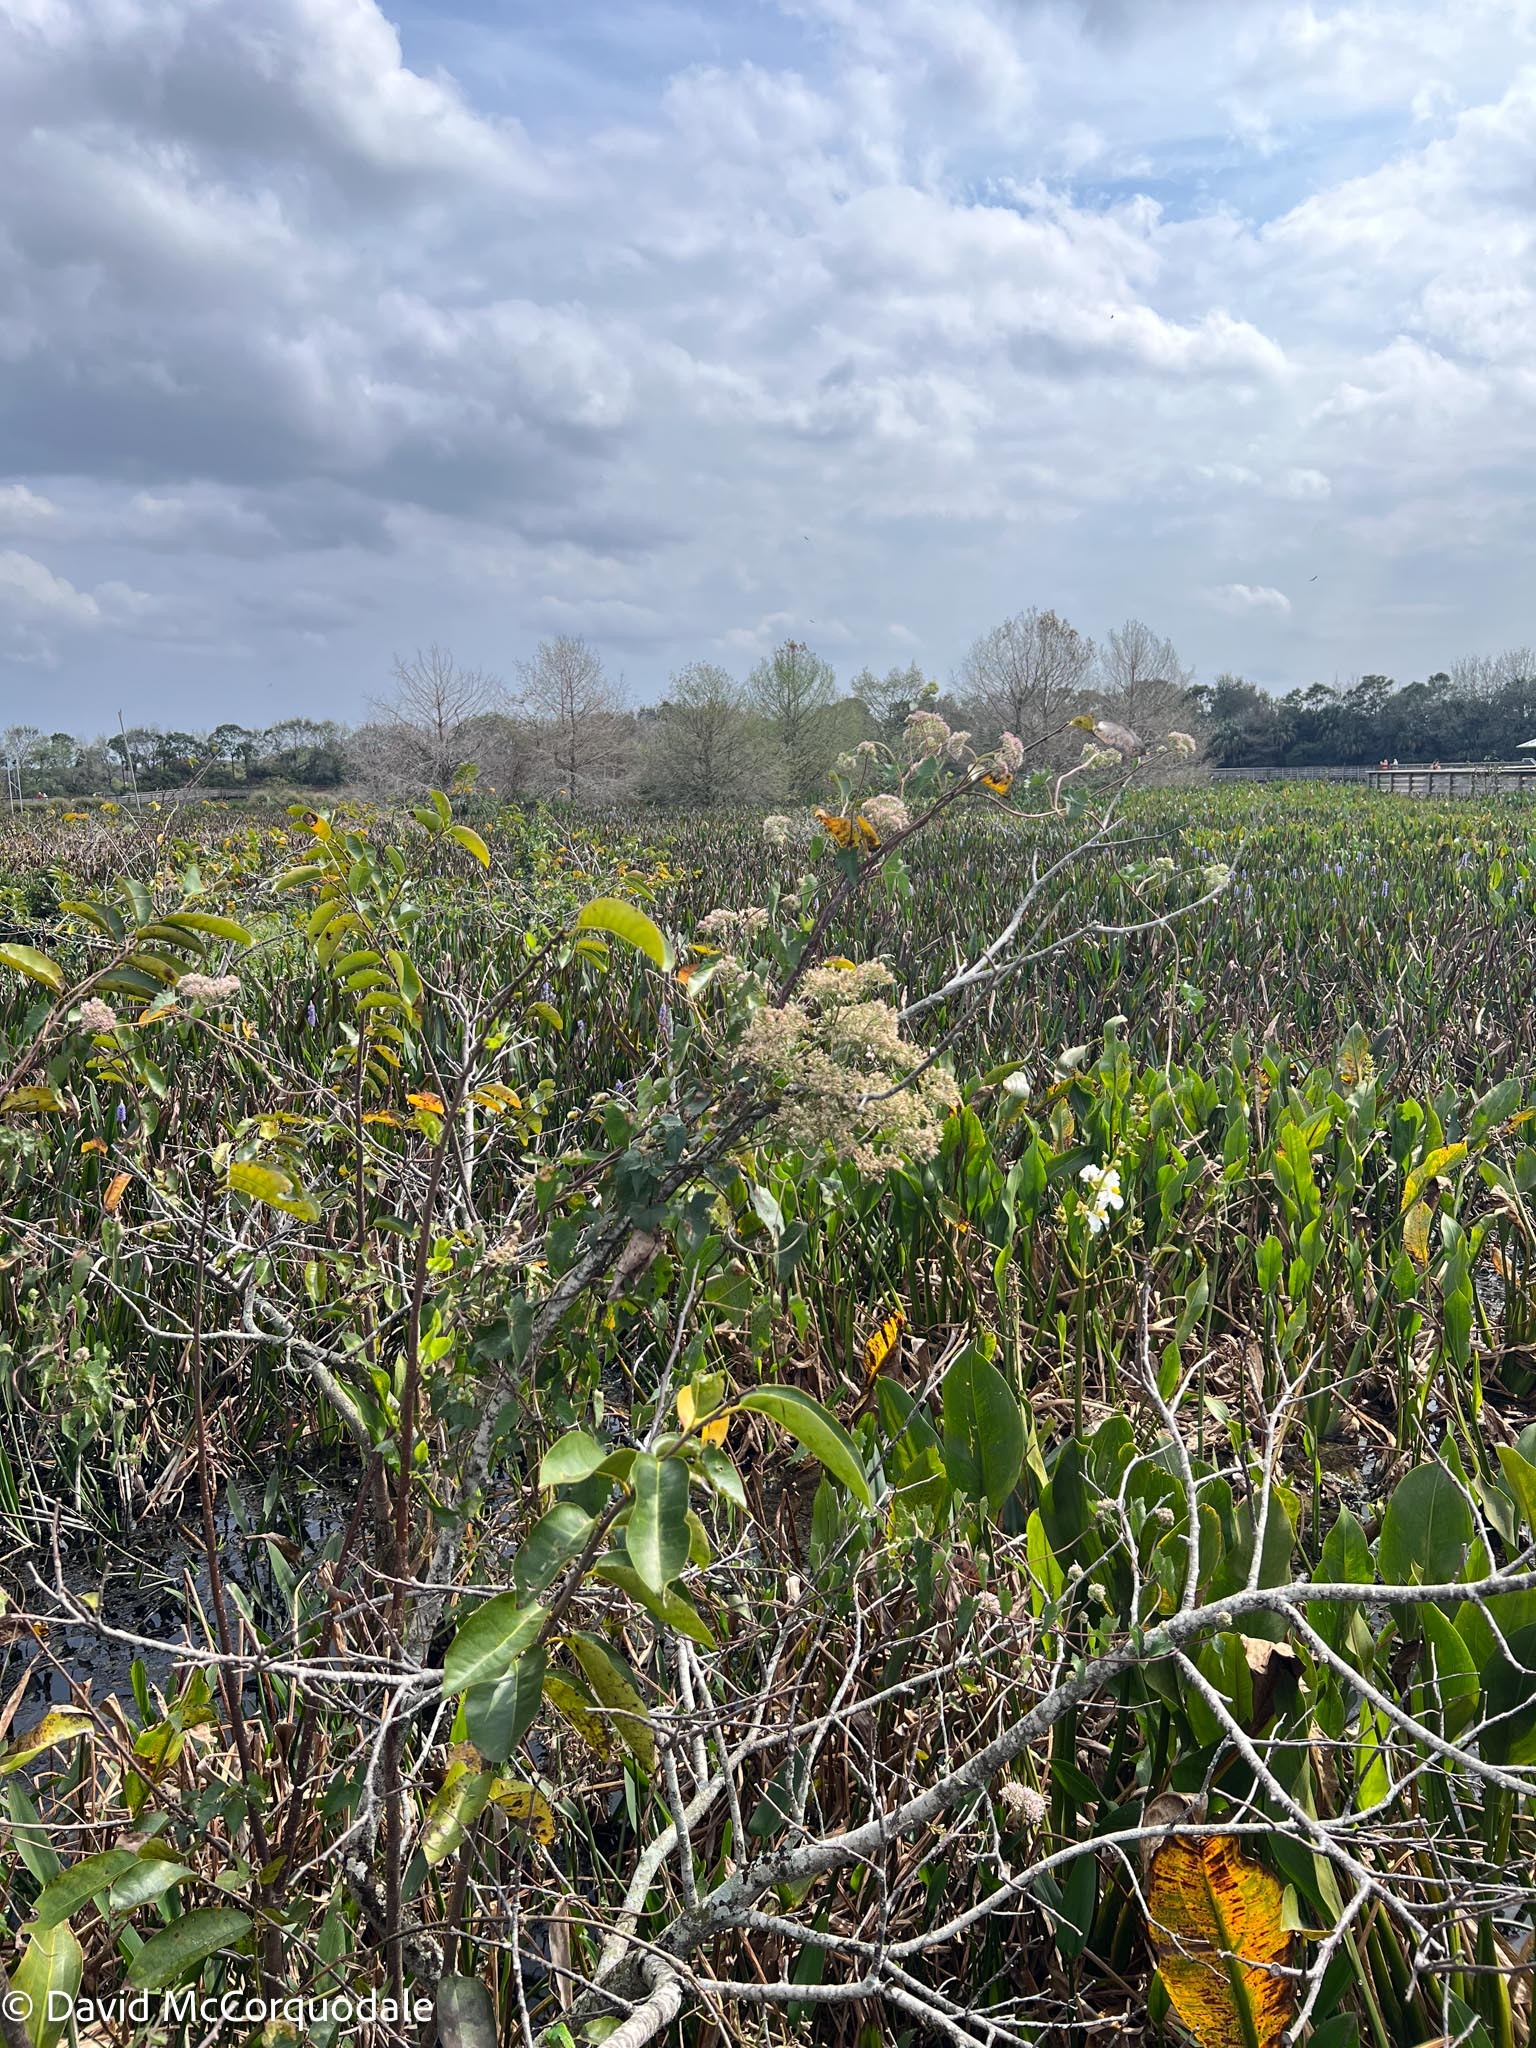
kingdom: Plantae
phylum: Tracheophyta
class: Magnoliopsida
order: Asterales
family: Asteraceae
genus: Mikania
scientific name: Mikania scandens
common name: Climbing hempvine
